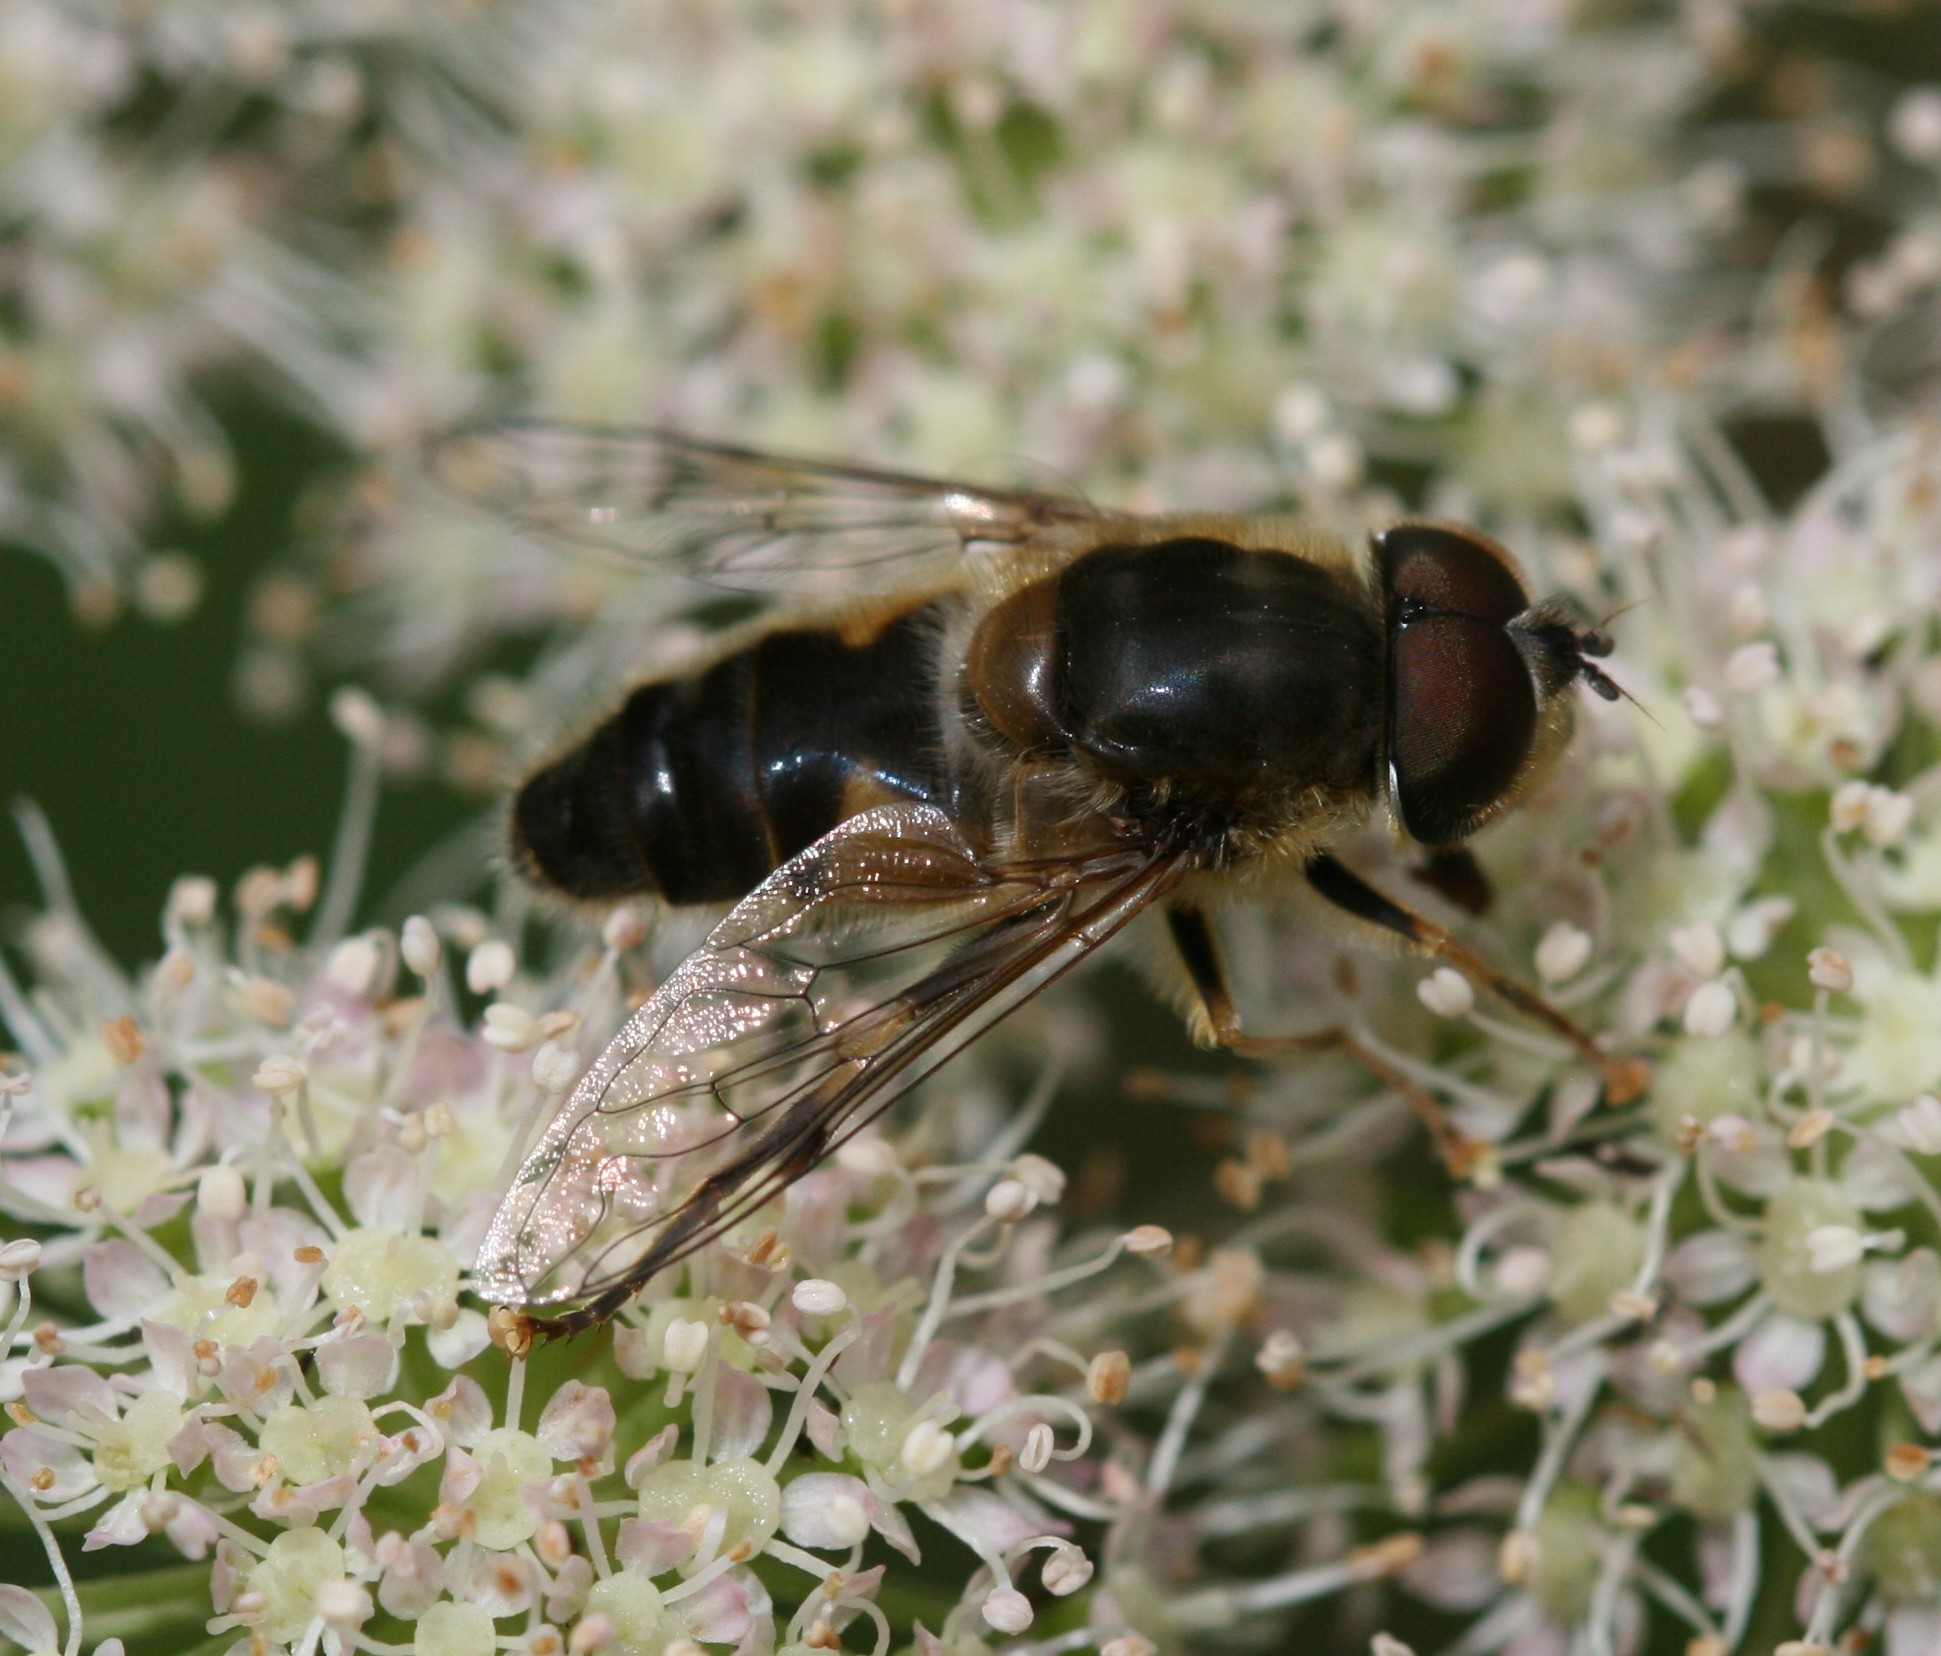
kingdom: Animalia
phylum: Arthropoda
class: Insecta
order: Diptera
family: Syrphidae
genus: Eristalis
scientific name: Eristalis pertinax
